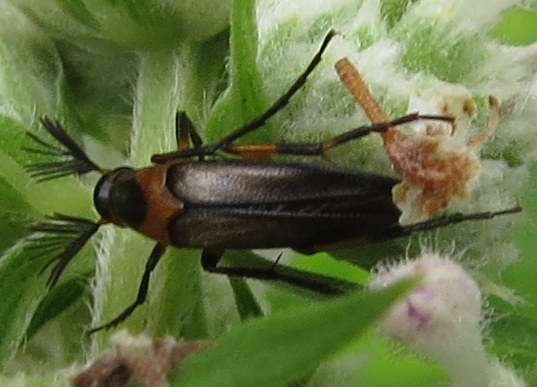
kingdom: Animalia
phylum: Arthropoda
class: Insecta
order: Coleoptera
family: Ripiphoridae
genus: Macrosiagon
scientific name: Macrosiagon limbatum
